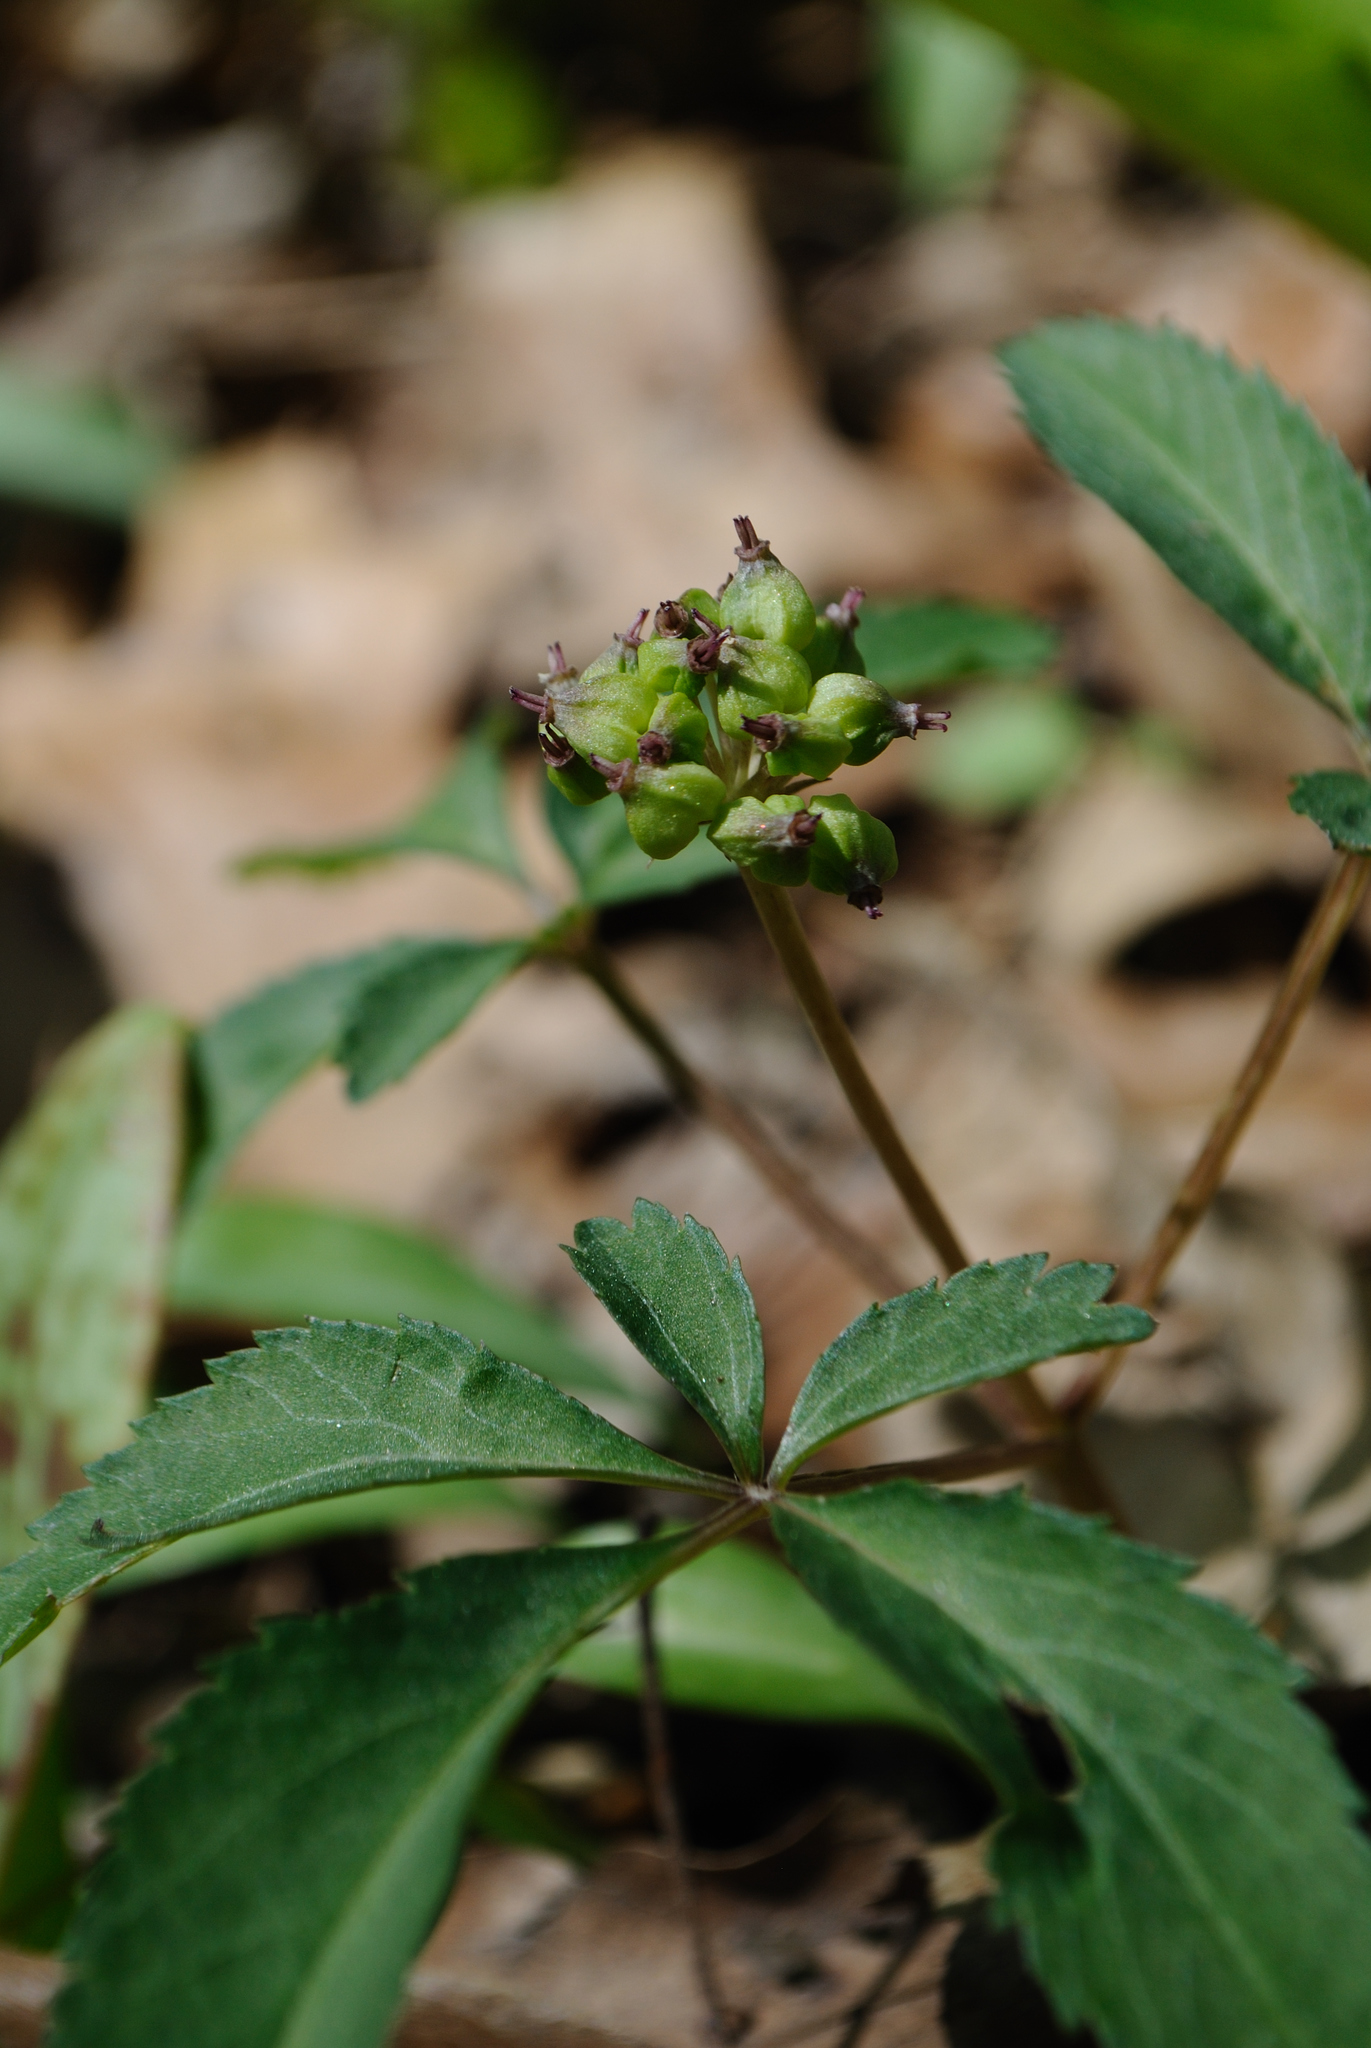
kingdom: Plantae
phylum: Tracheophyta
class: Magnoliopsida
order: Apiales
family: Araliaceae
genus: Panax
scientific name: Panax trifolius
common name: Dwarf ginseng
